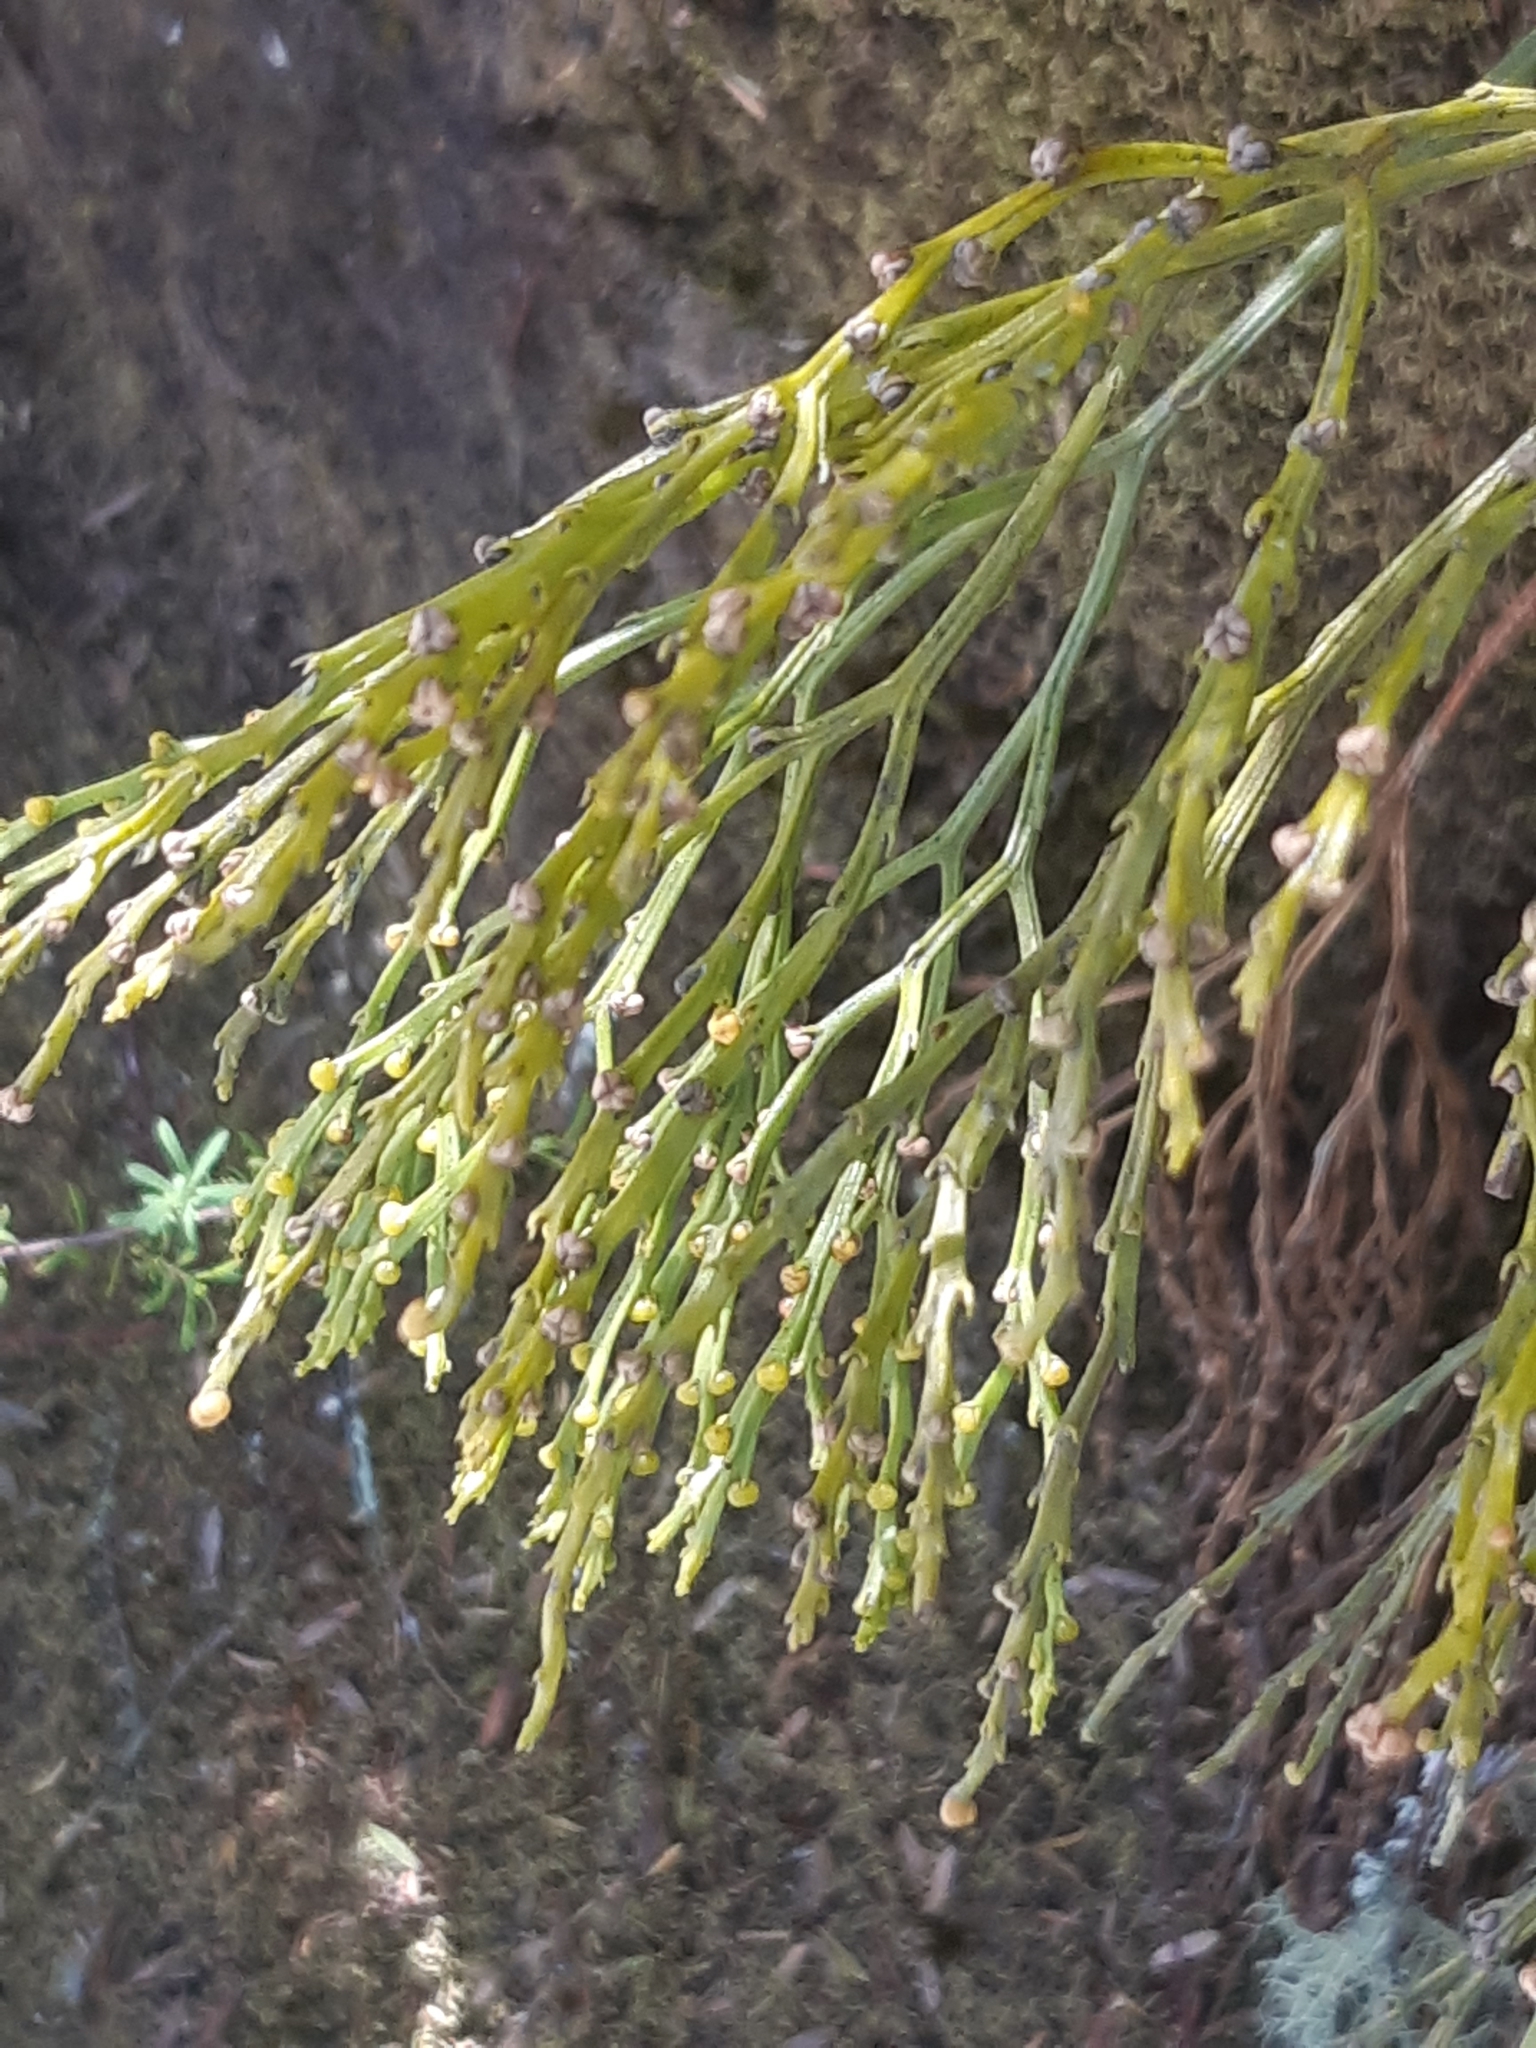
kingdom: Plantae
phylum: Tracheophyta
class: Polypodiopsida
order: Psilotales
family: Psilotaceae
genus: Psilotum
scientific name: Psilotum nudum
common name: Skeleton fork fern
